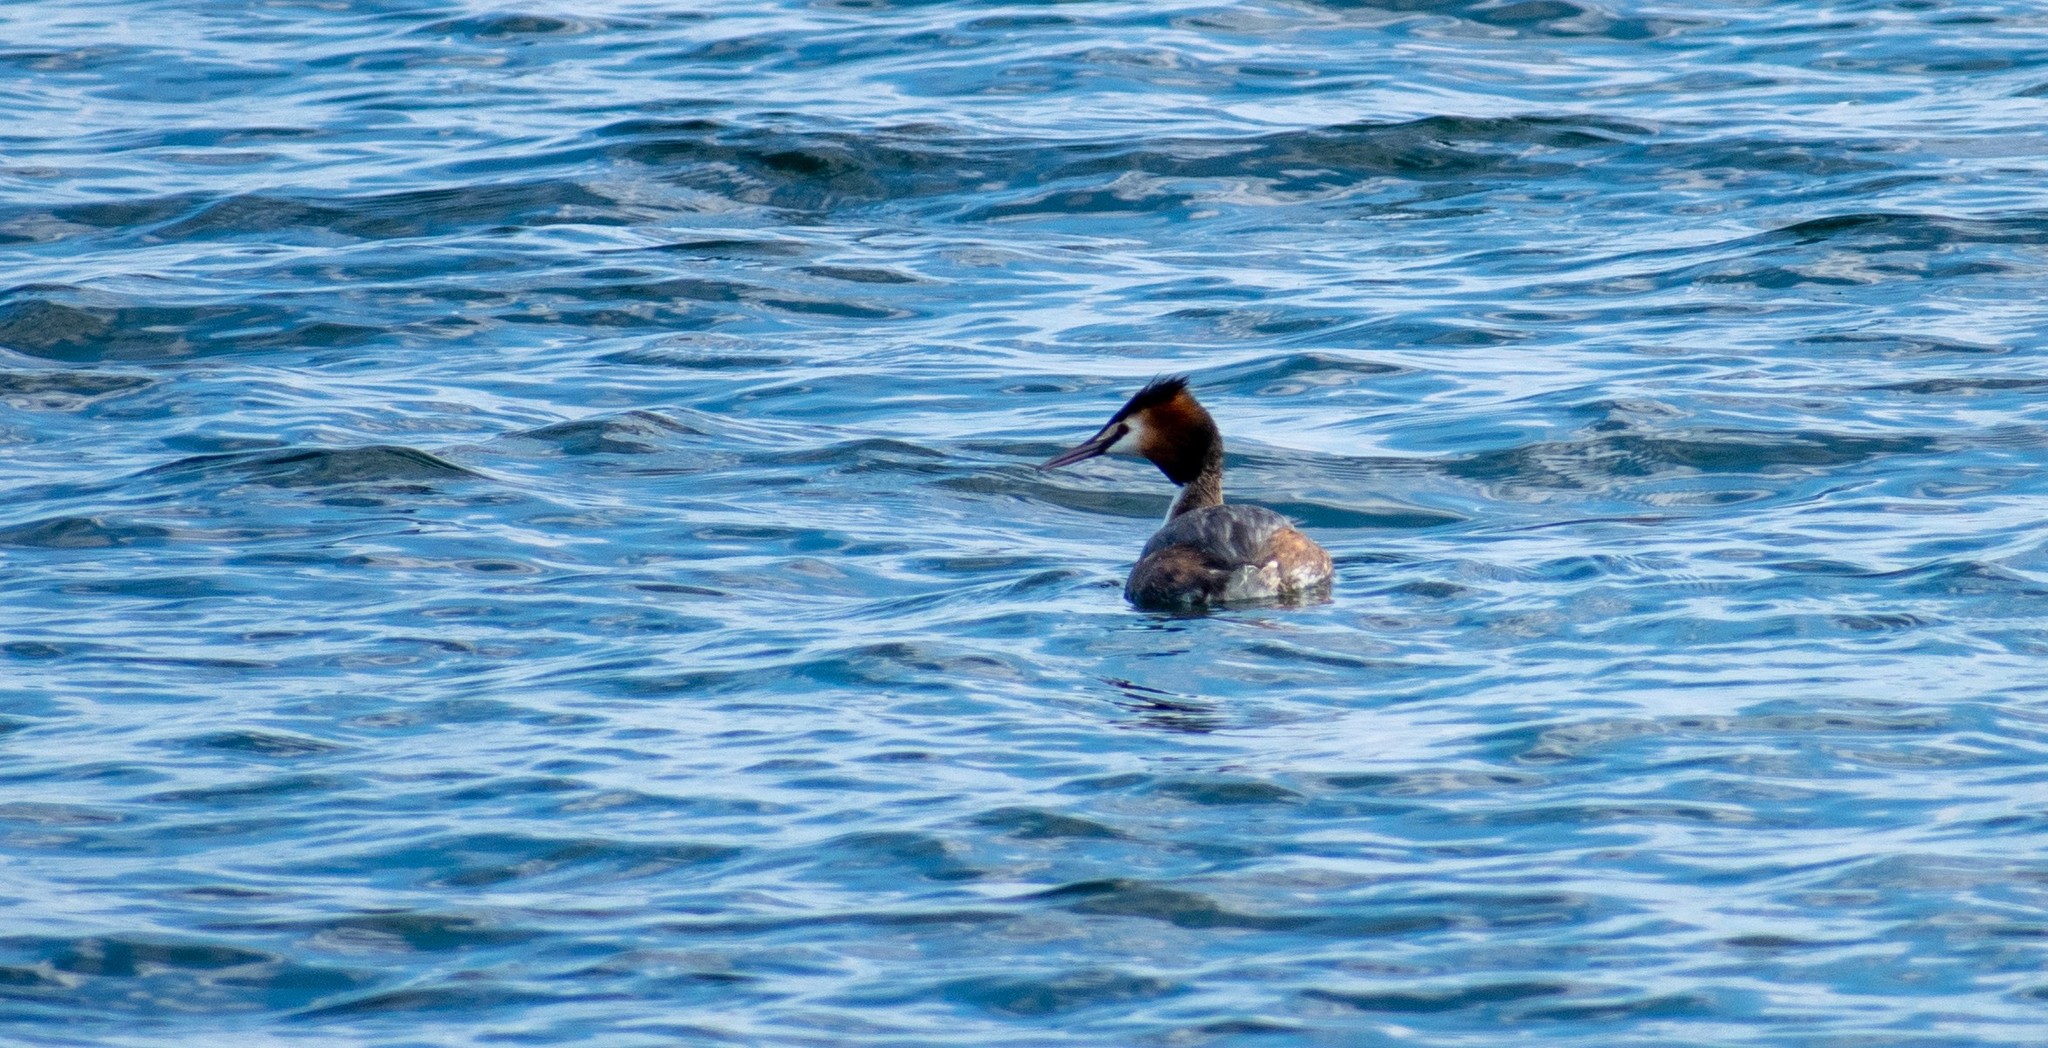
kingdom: Animalia
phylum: Chordata
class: Aves
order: Podicipediformes
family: Podicipedidae
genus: Podiceps
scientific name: Podiceps cristatus
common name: Great crested grebe
